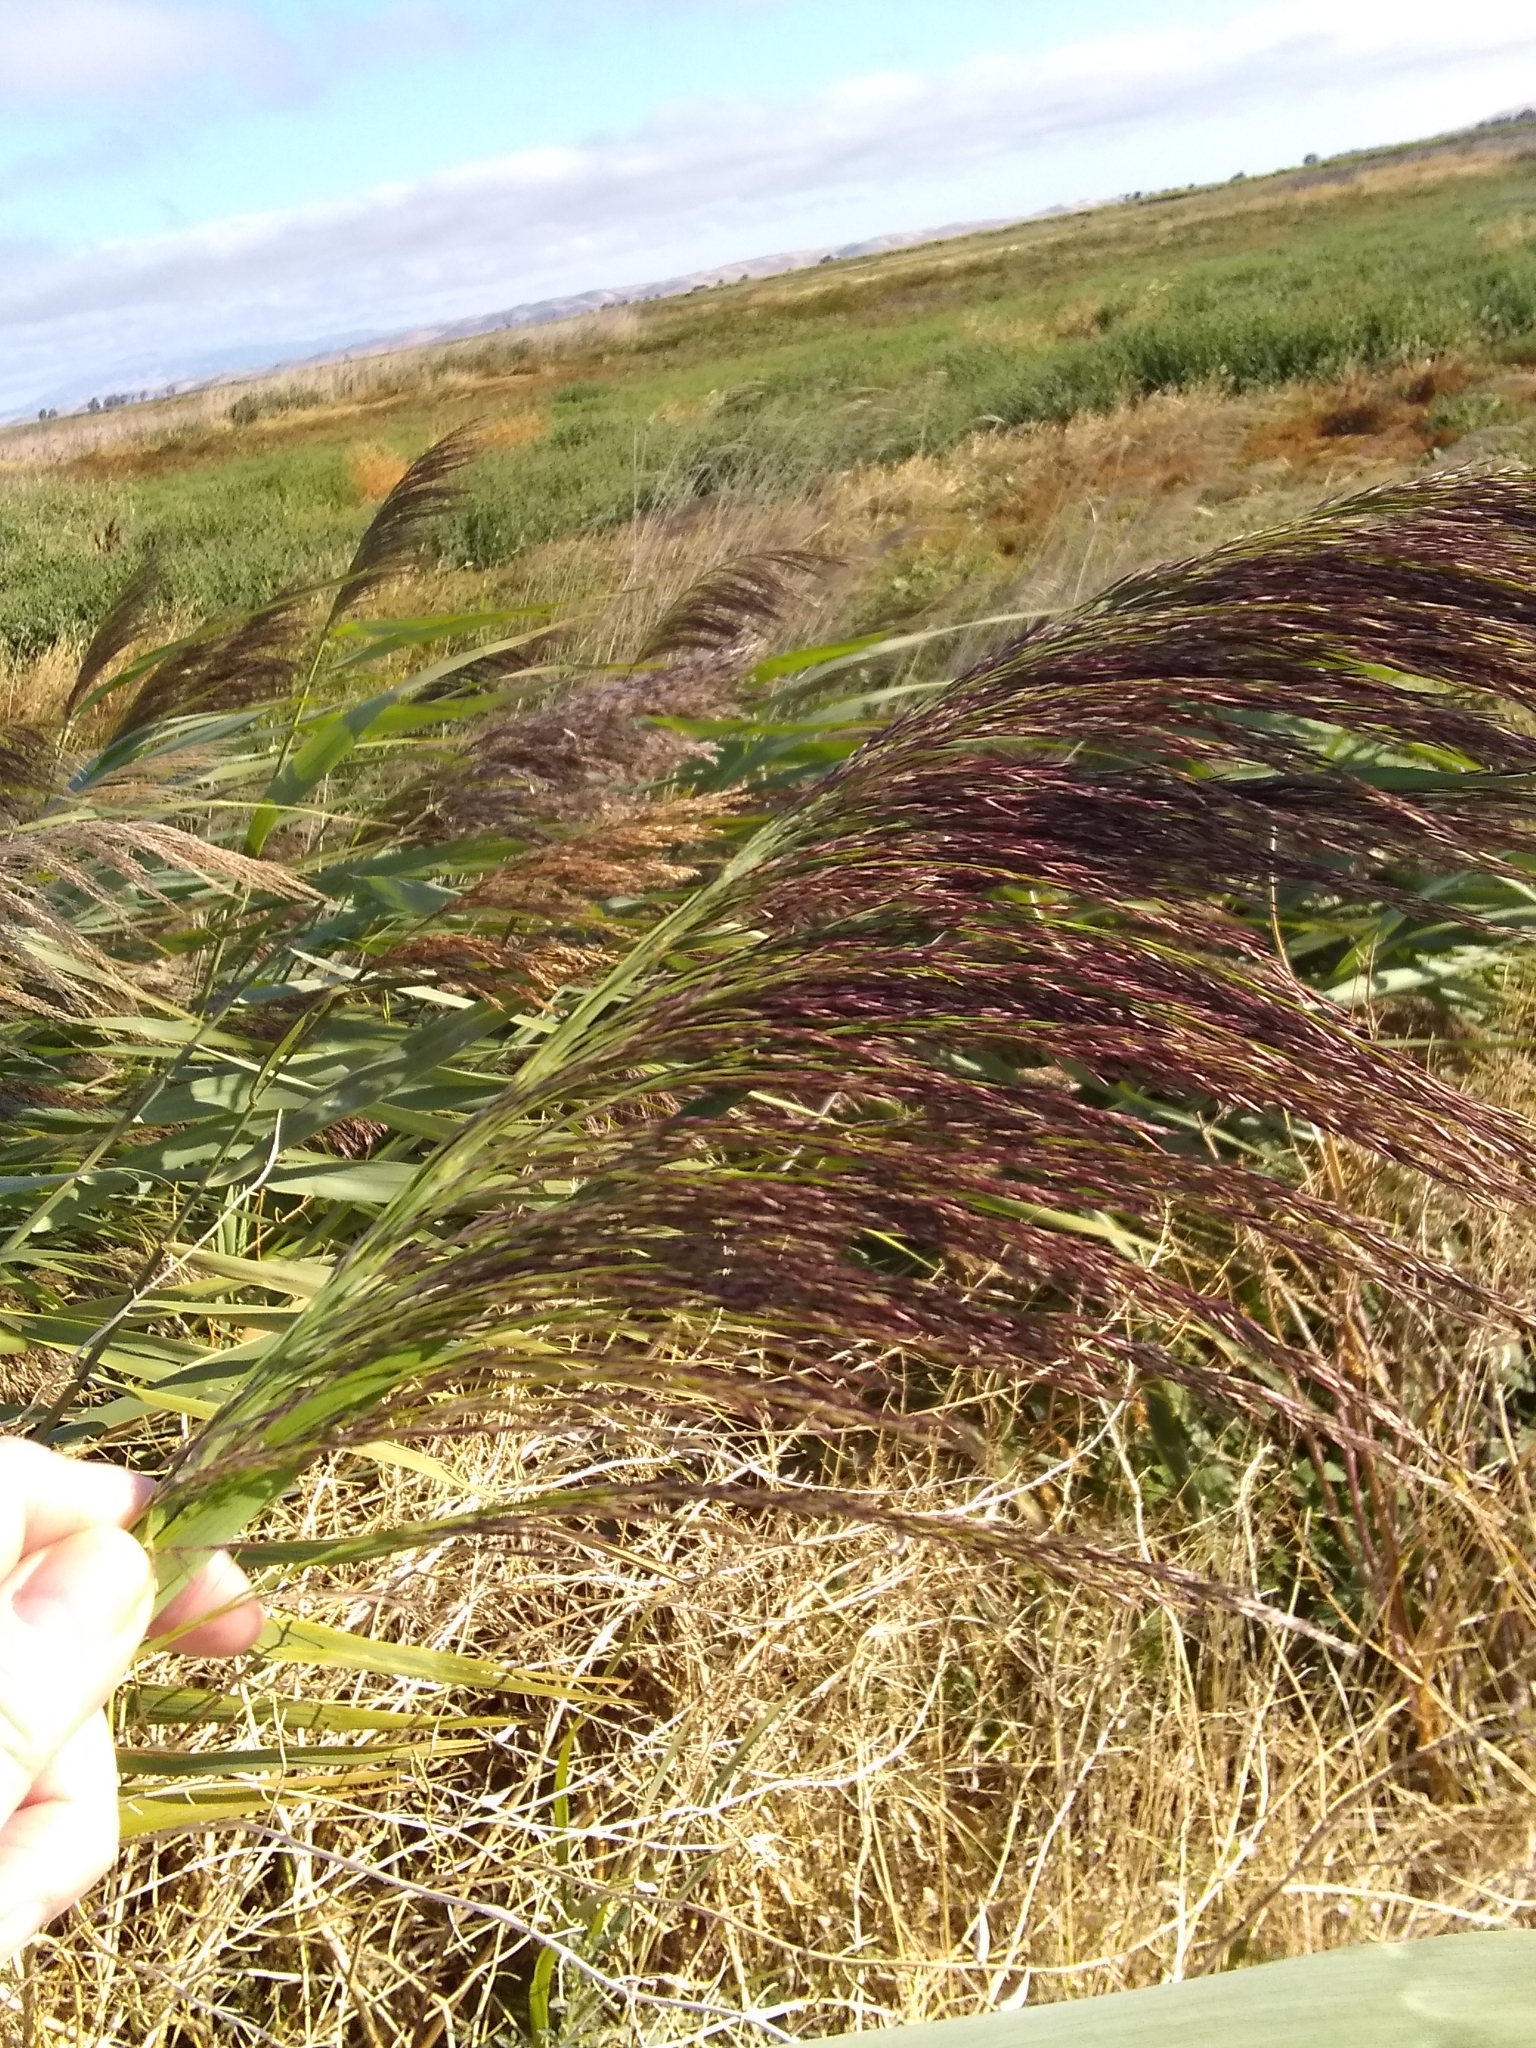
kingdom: Plantae
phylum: Tracheophyta
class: Liliopsida
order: Poales
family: Poaceae
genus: Phragmites
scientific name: Phragmites australis
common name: Common reed
